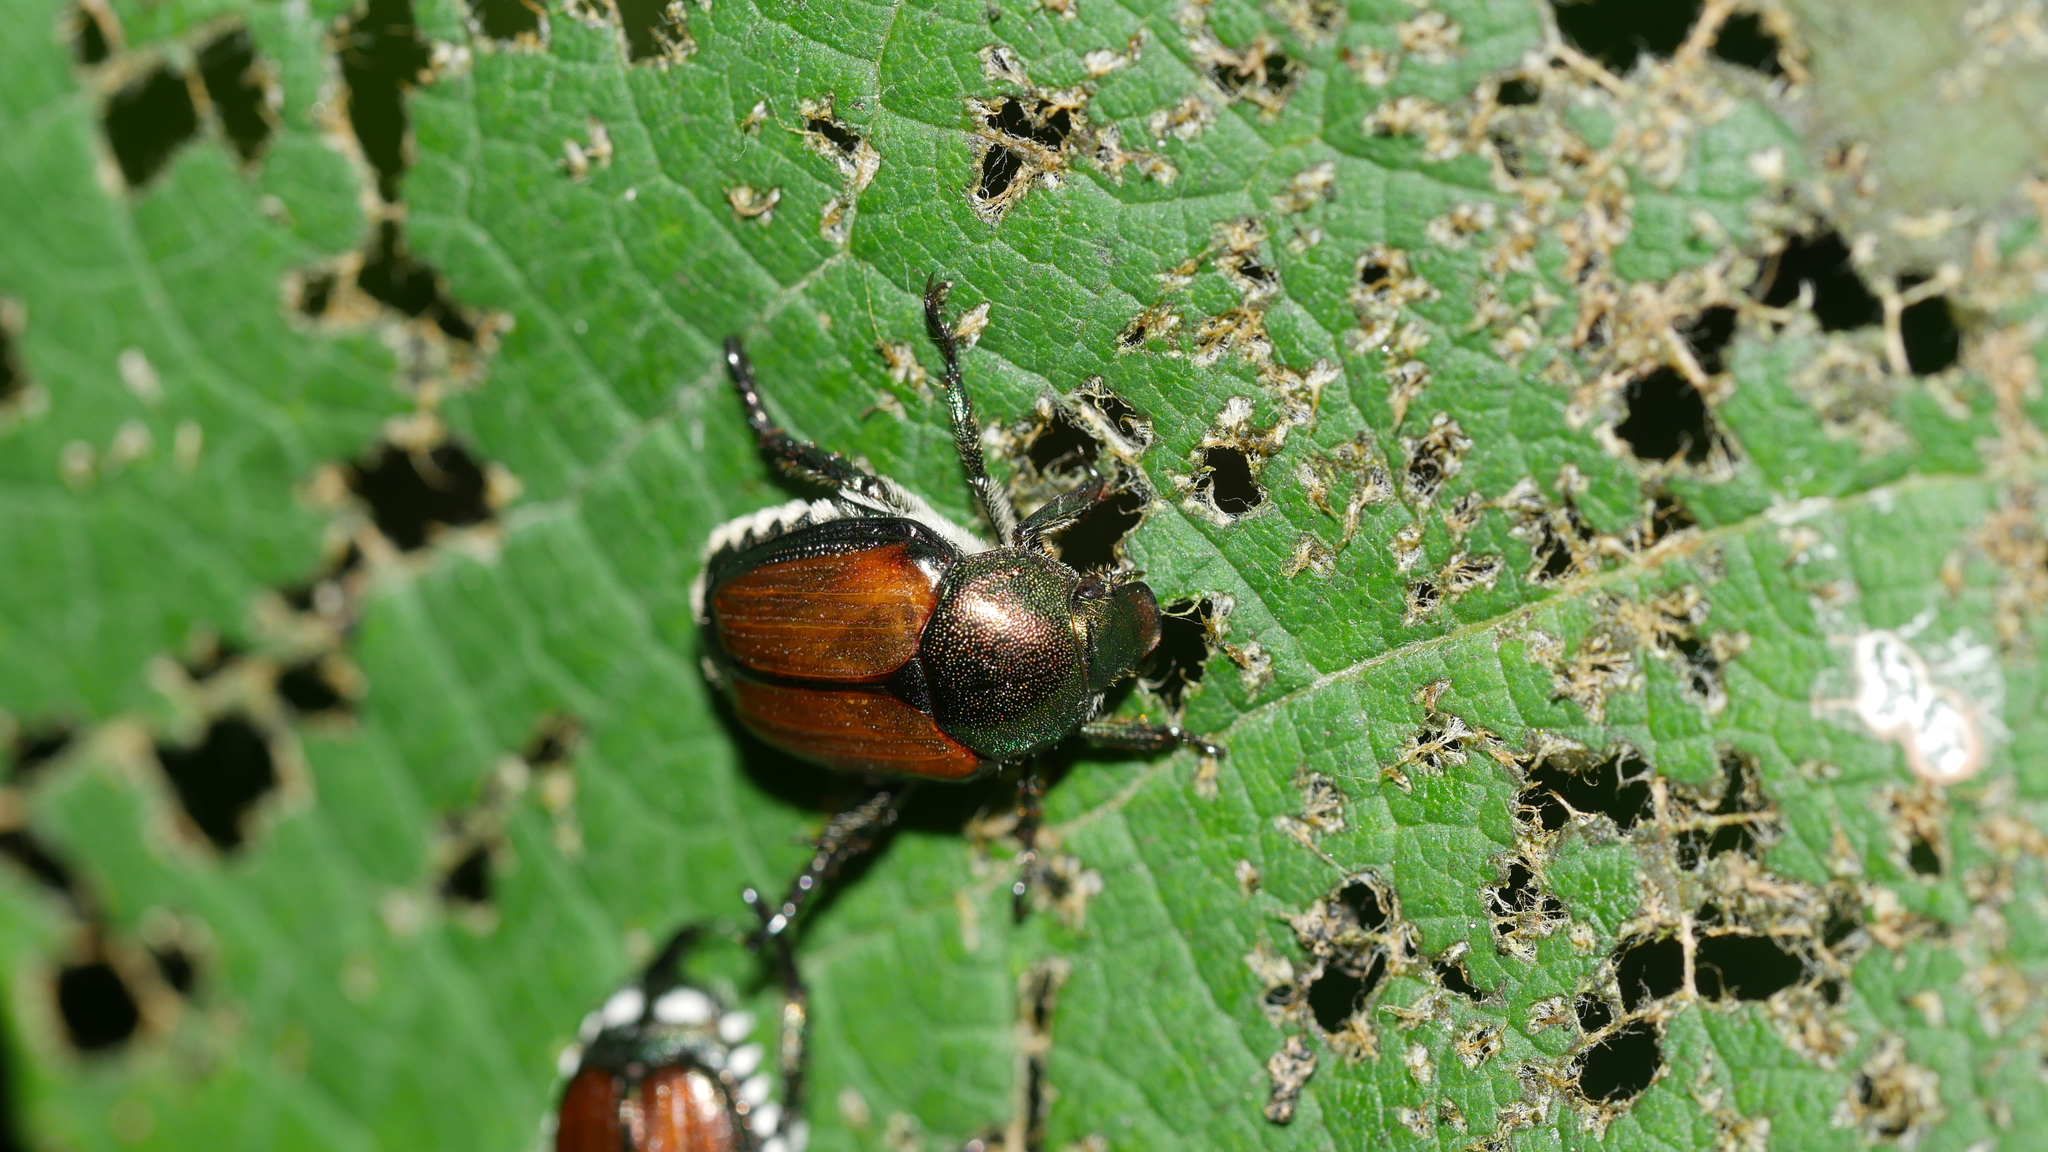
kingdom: Animalia
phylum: Arthropoda
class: Insecta
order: Coleoptera
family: Scarabaeidae
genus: Popillia
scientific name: Popillia japonica
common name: Japanese beetle
